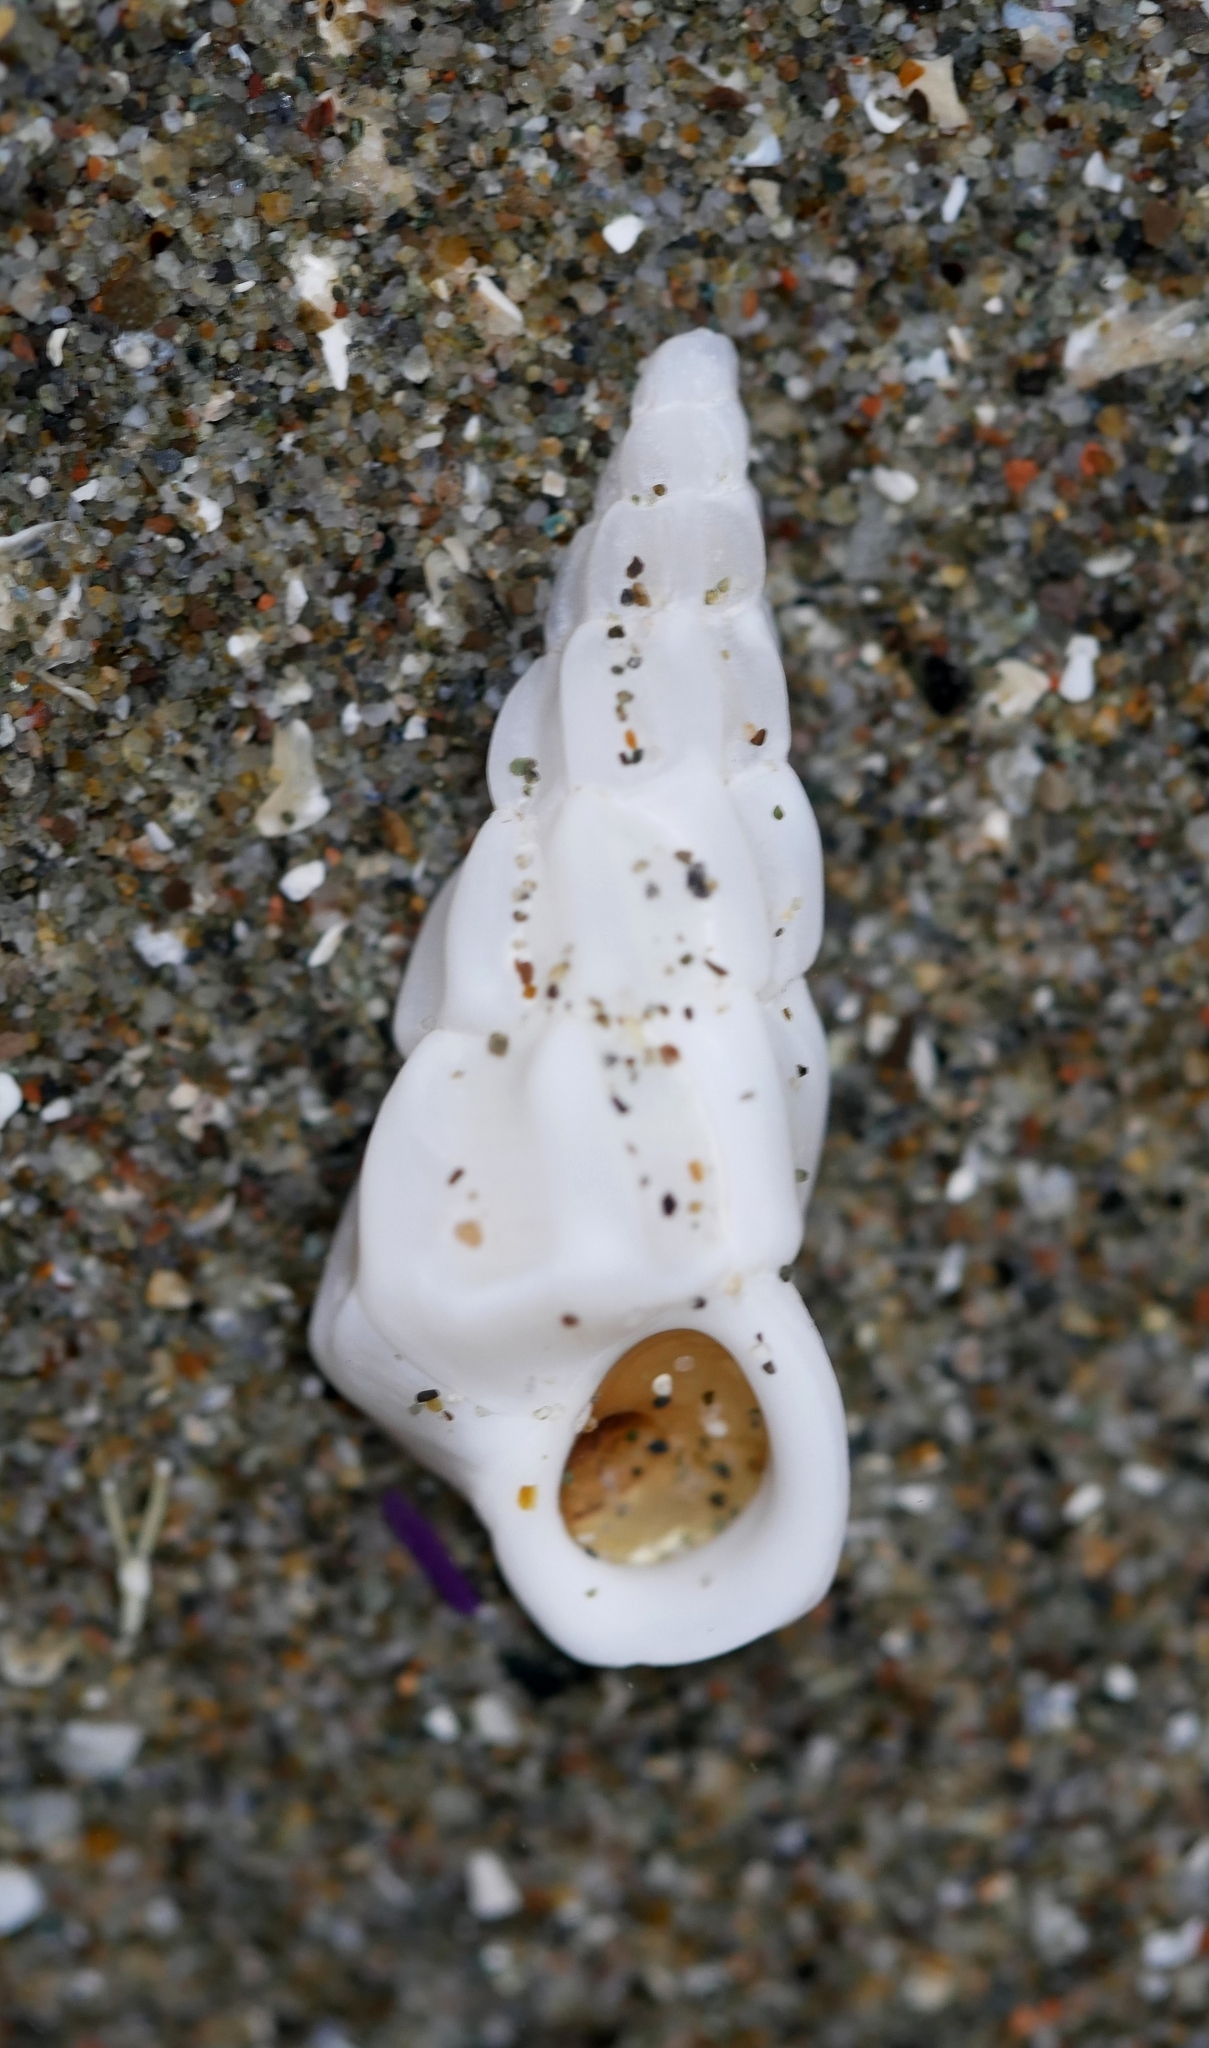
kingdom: Animalia
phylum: Mollusca
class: Gastropoda
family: Epitoniidae
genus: Opalia
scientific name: Opalia wroblewskyi
